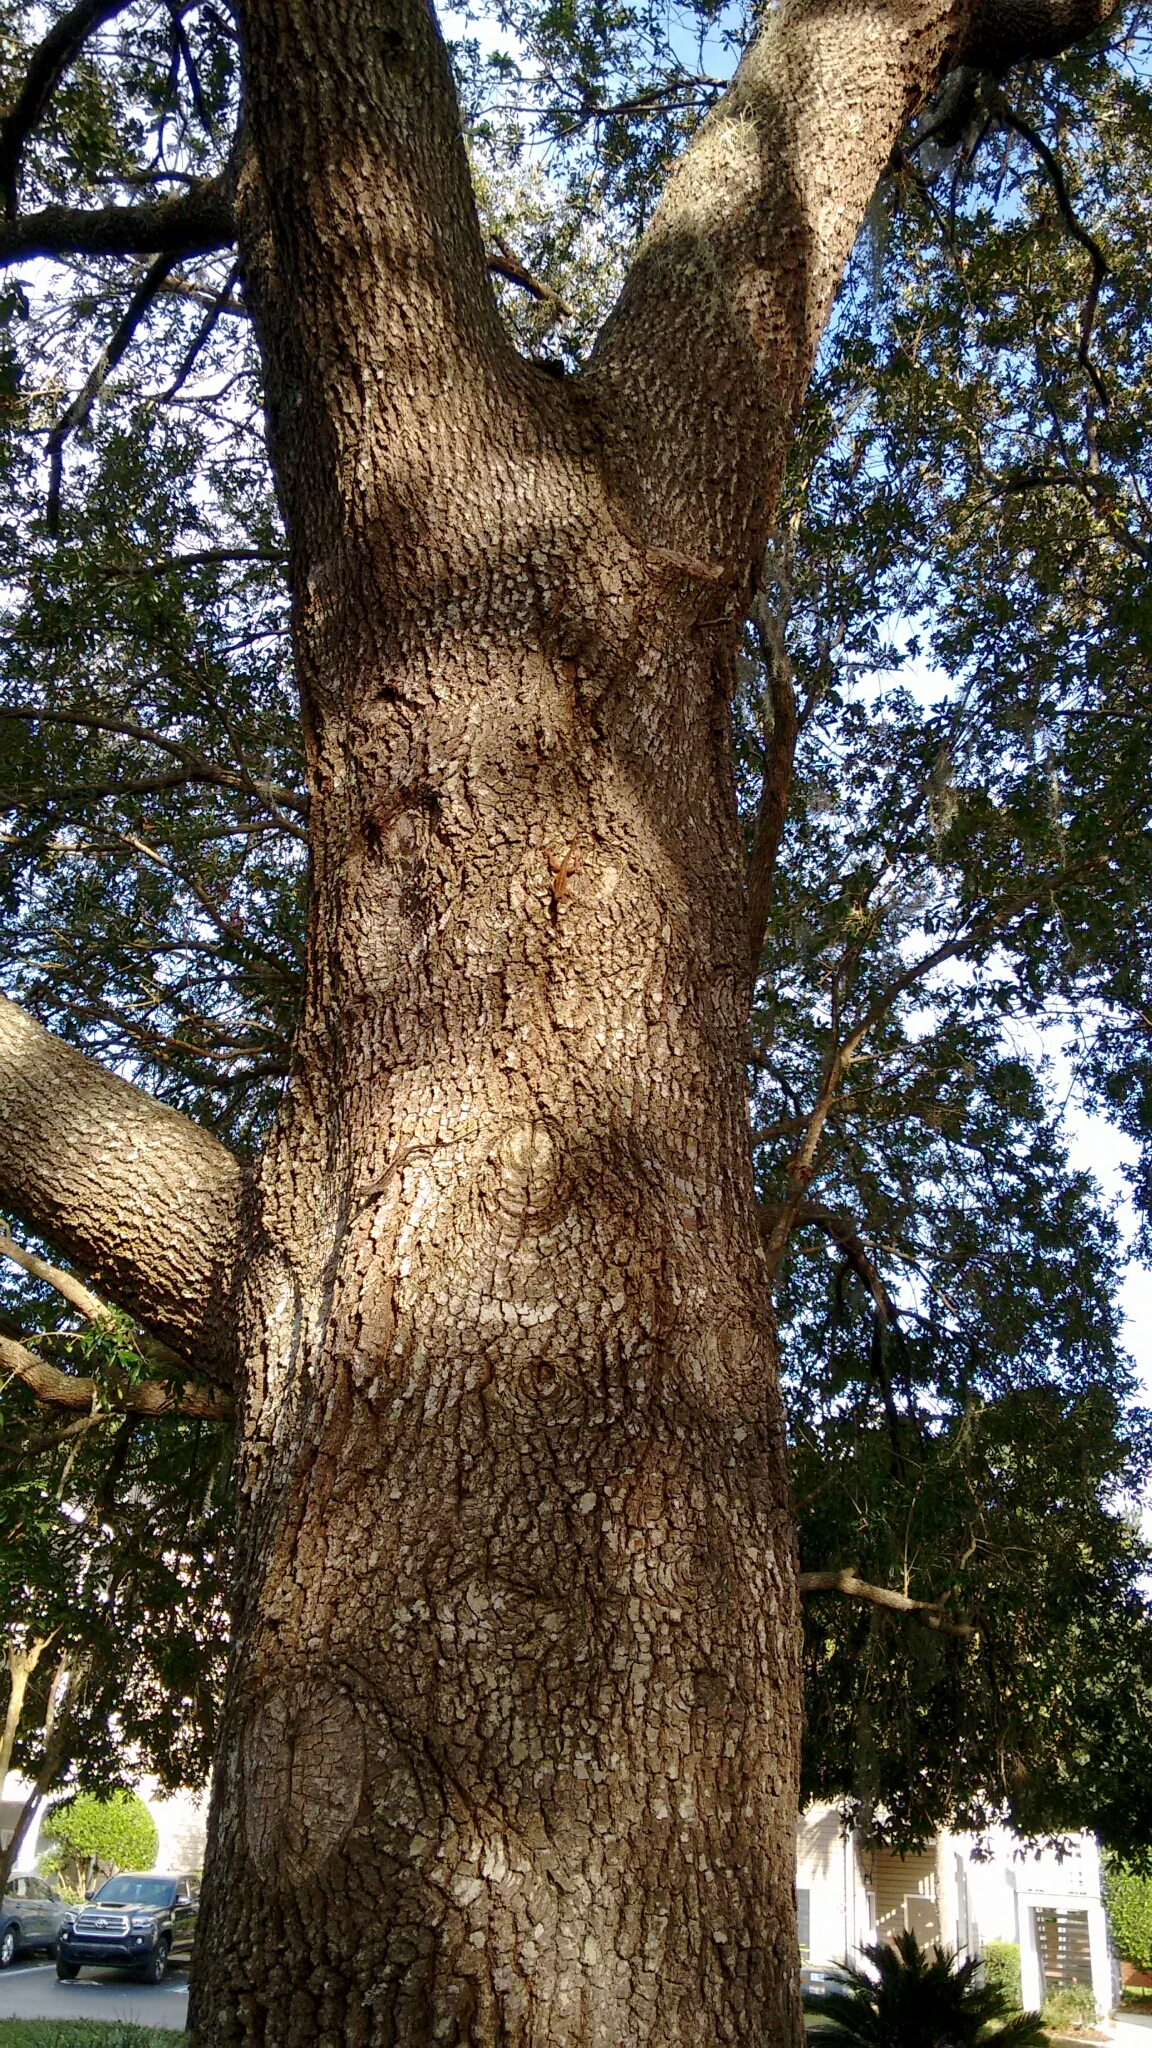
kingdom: Animalia
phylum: Chordata
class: Squamata
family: Dactyloidae
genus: Anolis
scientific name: Anolis sagrei
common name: Brown anole
